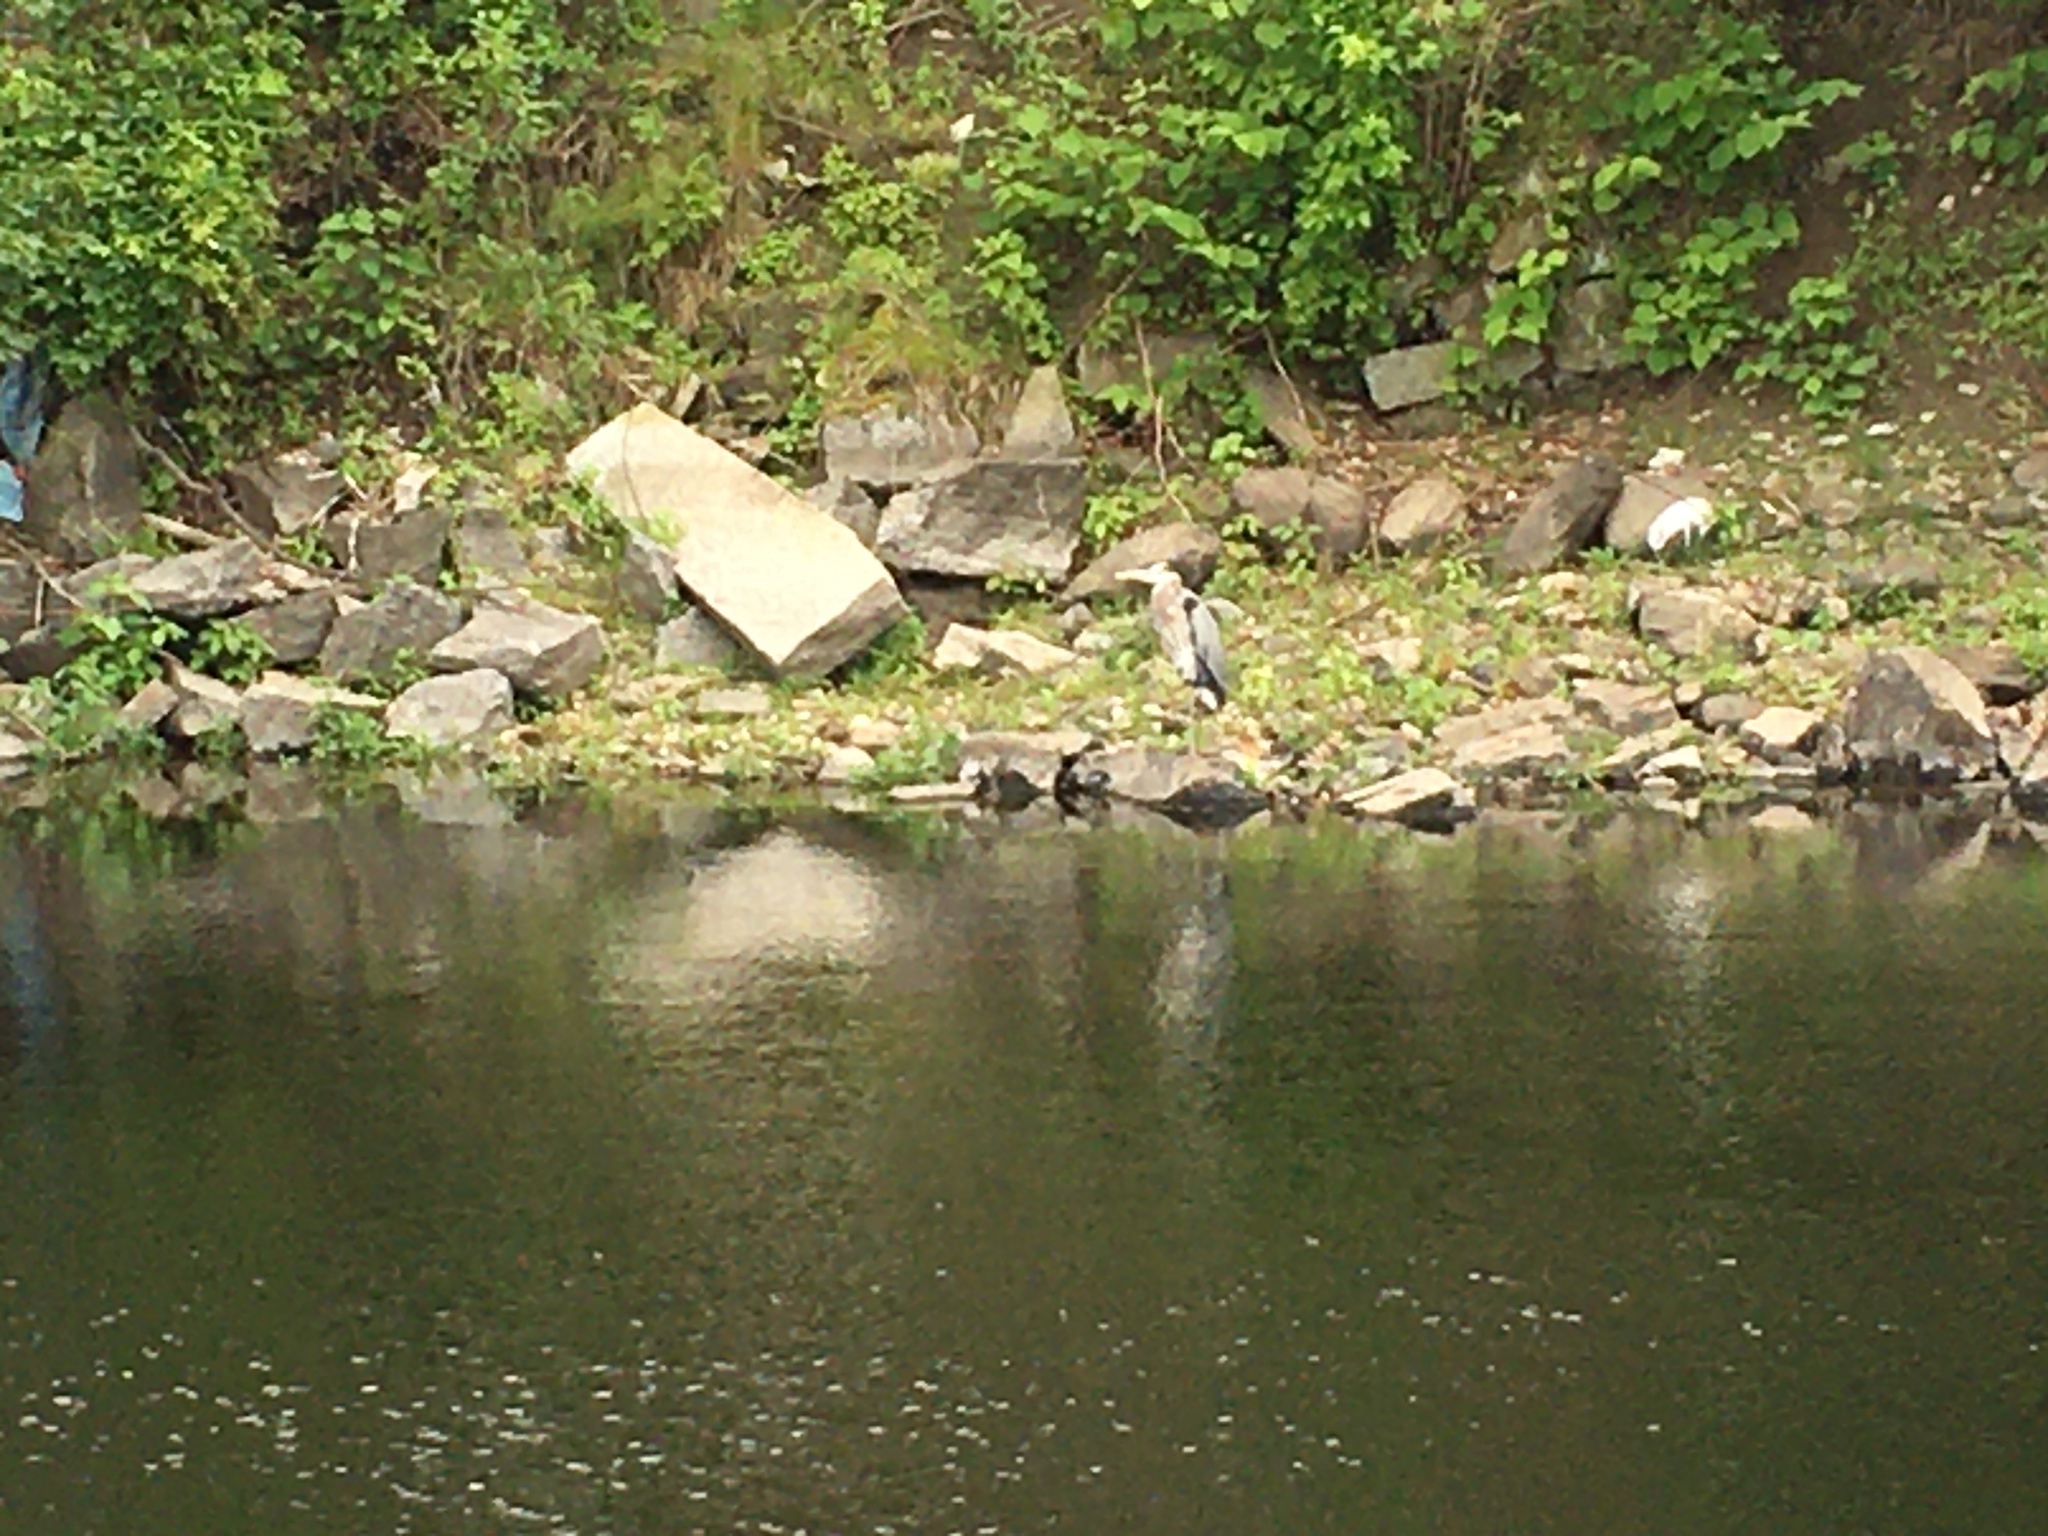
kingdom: Animalia
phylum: Chordata
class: Aves
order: Pelecaniformes
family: Ardeidae
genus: Ardea
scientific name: Ardea herodias
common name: Great blue heron
